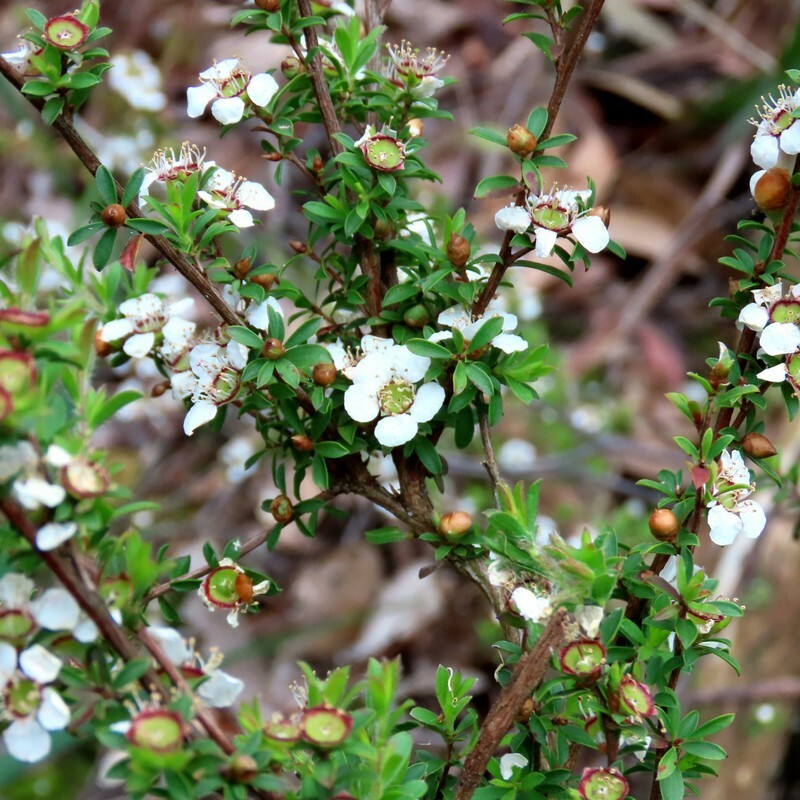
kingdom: Plantae
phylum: Tracheophyta
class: Magnoliopsida
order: Myrtales
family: Myrtaceae
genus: Leptospermum
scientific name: Leptospermum myrsinoides
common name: Heath teatree
